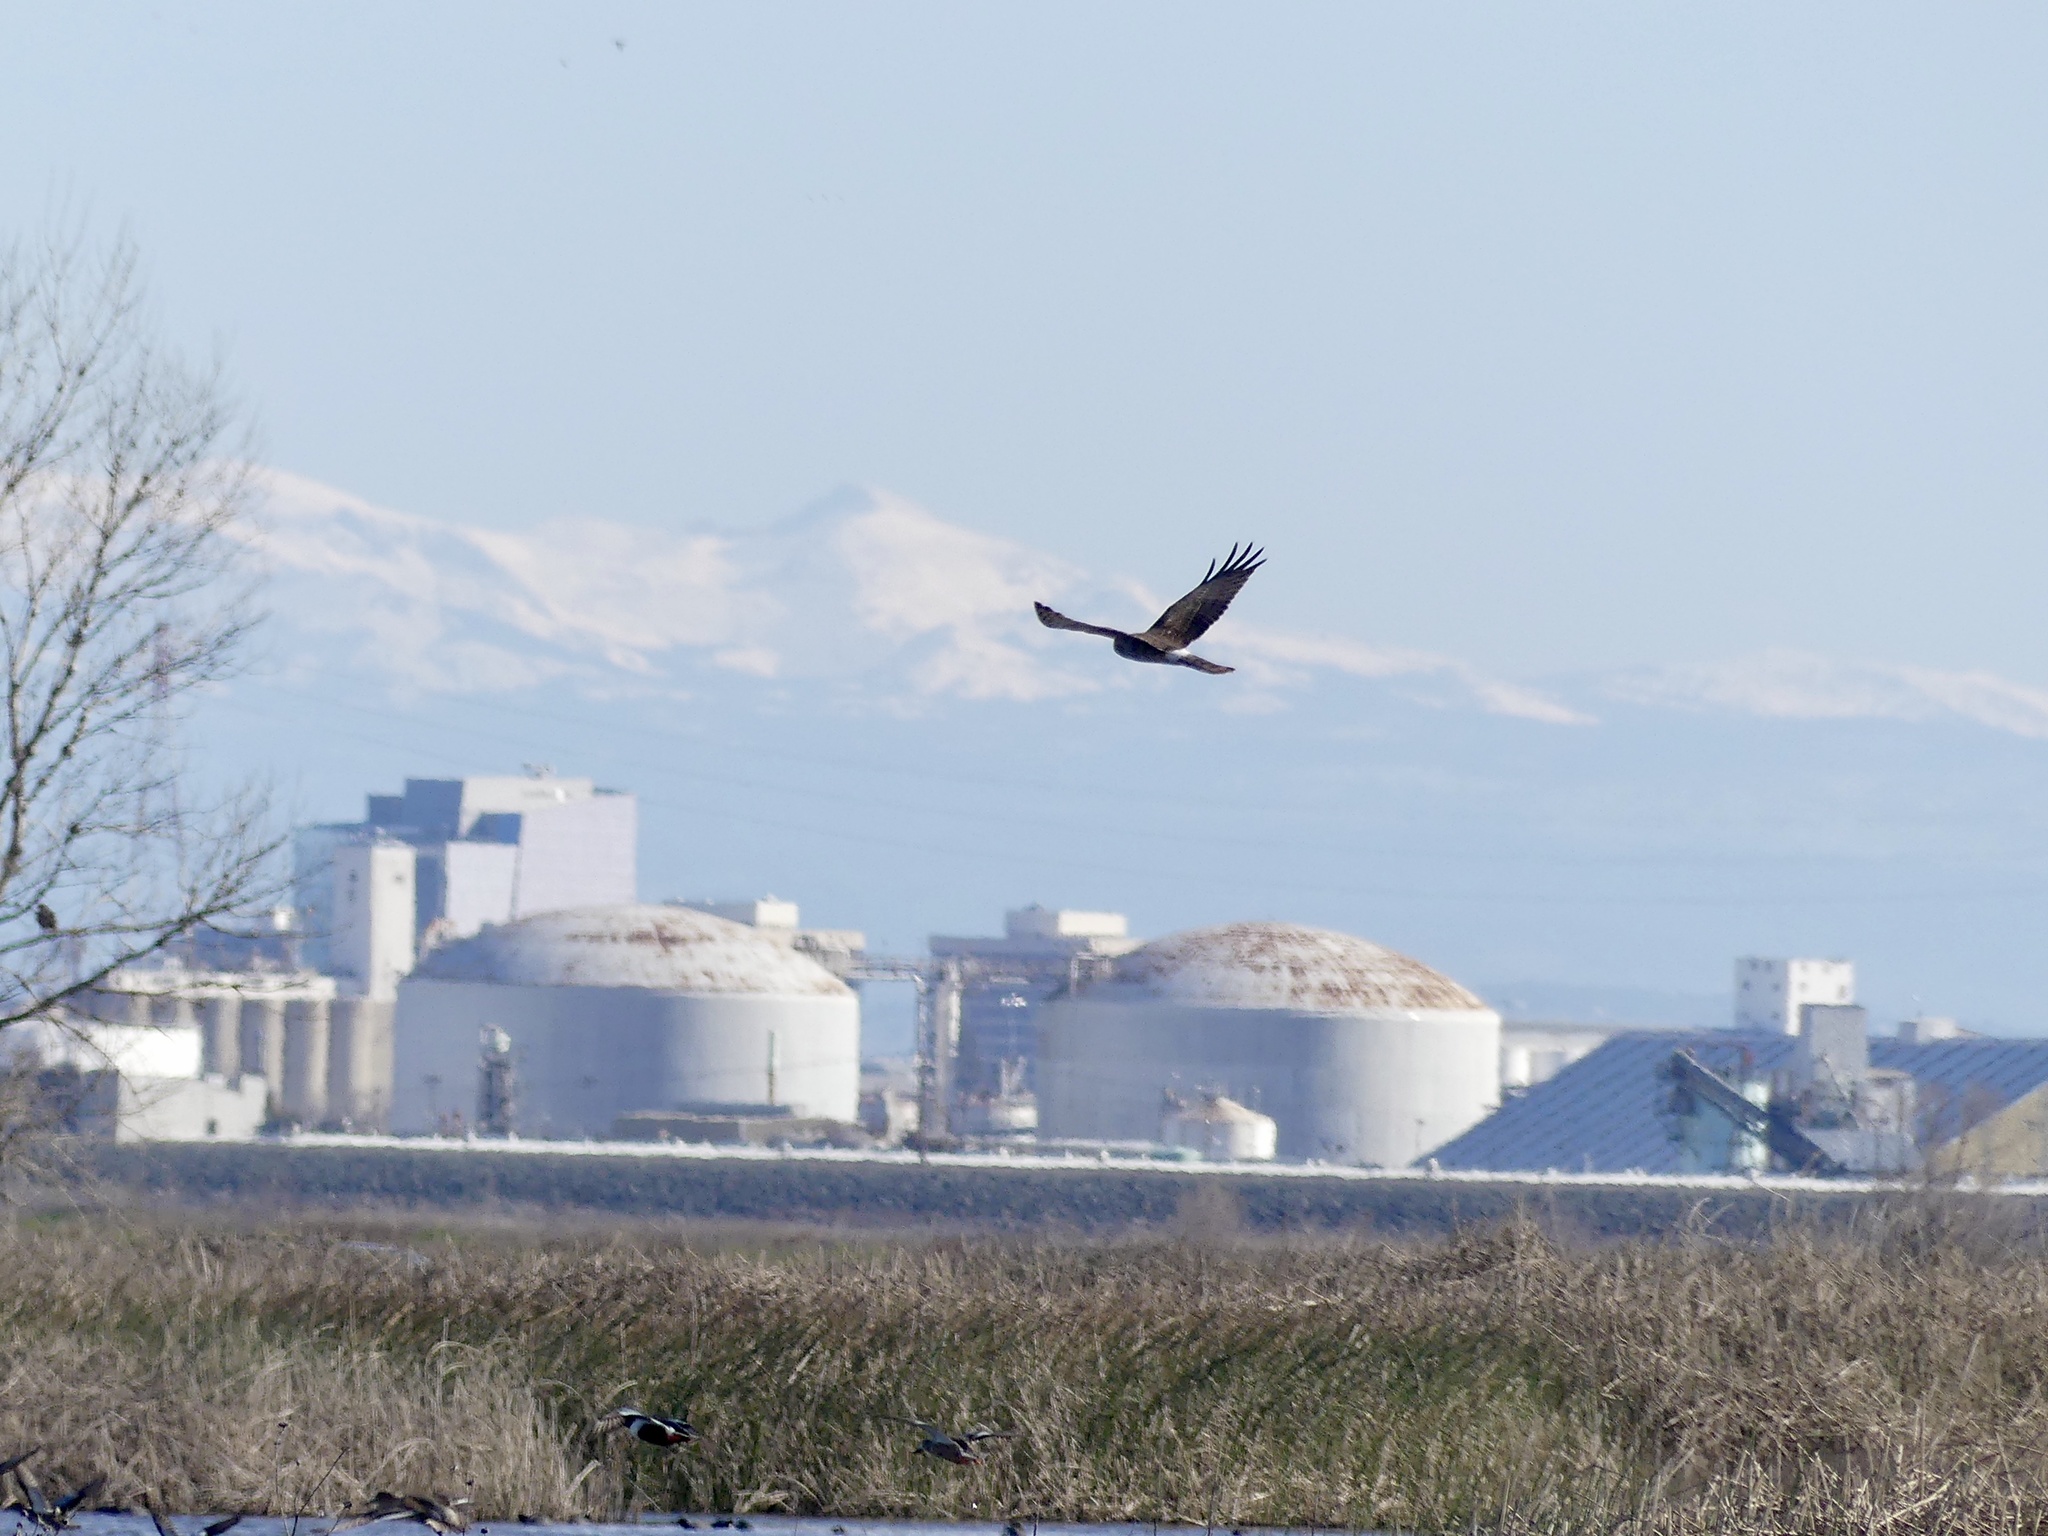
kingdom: Animalia
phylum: Chordata
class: Aves
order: Accipitriformes
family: Accipitridae
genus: Circus
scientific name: Circus cyaneus
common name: Hen harrier
